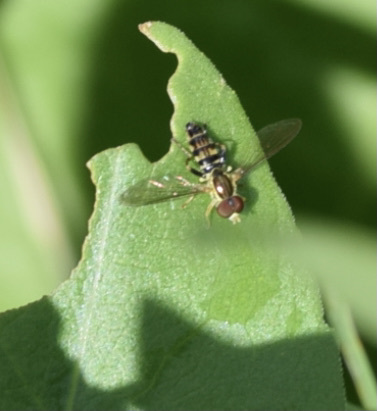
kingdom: Animalia
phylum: Arthropoda
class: Insecta
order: Diptera
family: Syrphidae
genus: Toxomerus
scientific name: Toxomerus geminatus
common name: Eastern calligrapher
